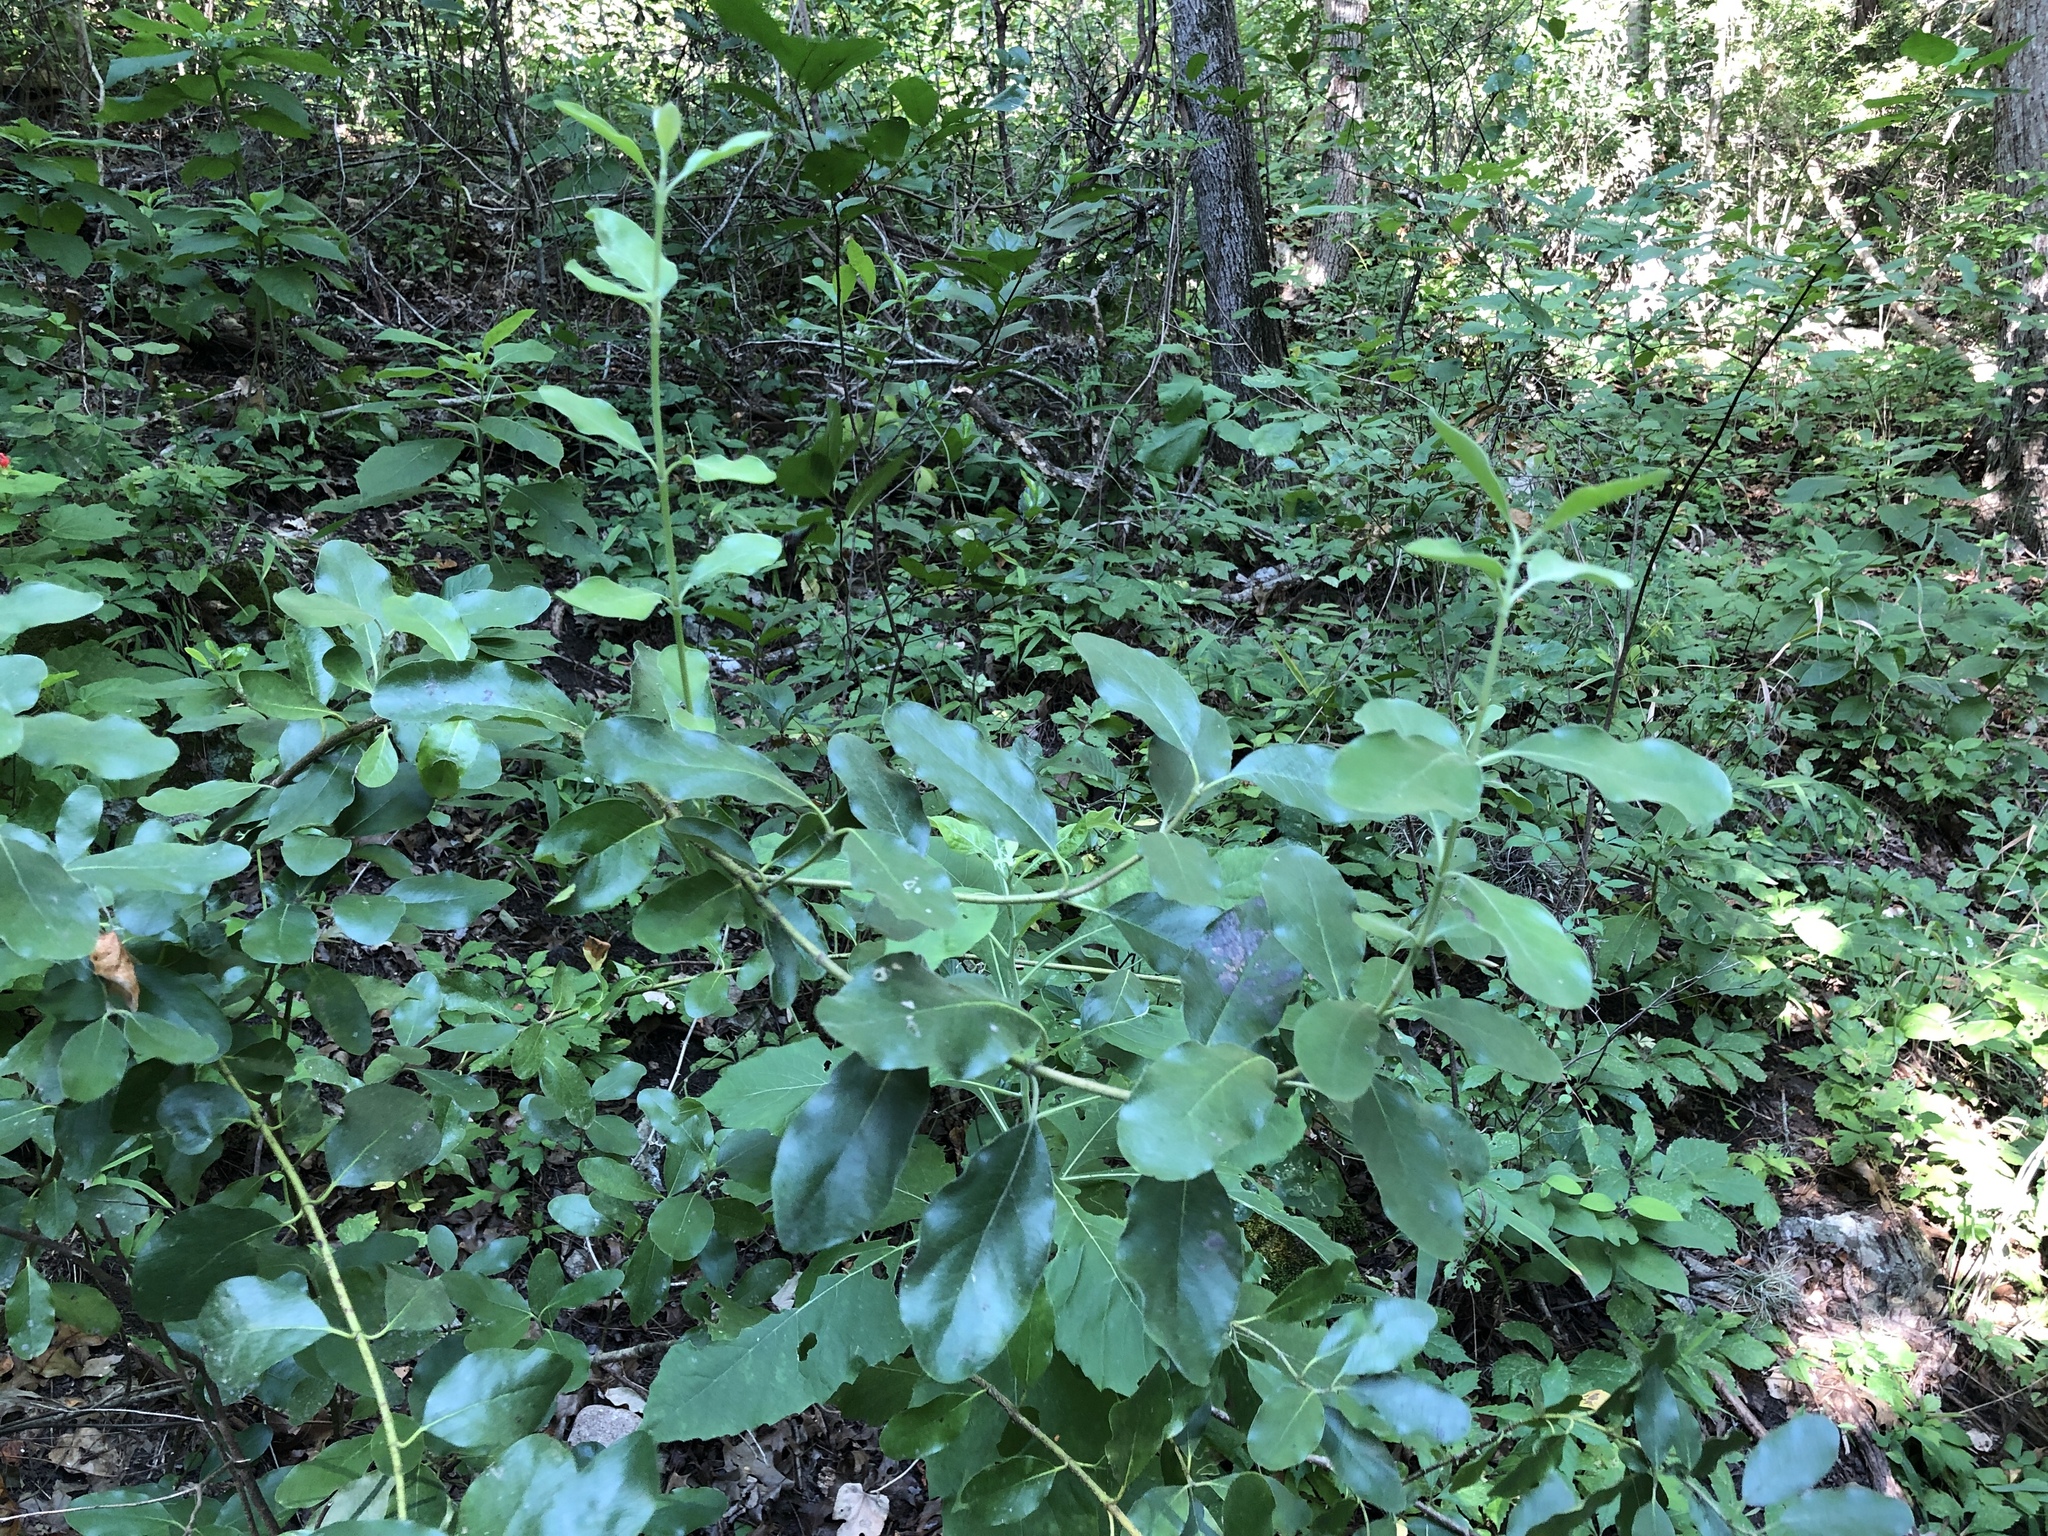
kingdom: Plantae
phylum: Tracheophyta
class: Magnoliopsida
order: Garryales
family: Garryaceae
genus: Garrya
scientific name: Garrya lindheimeri
